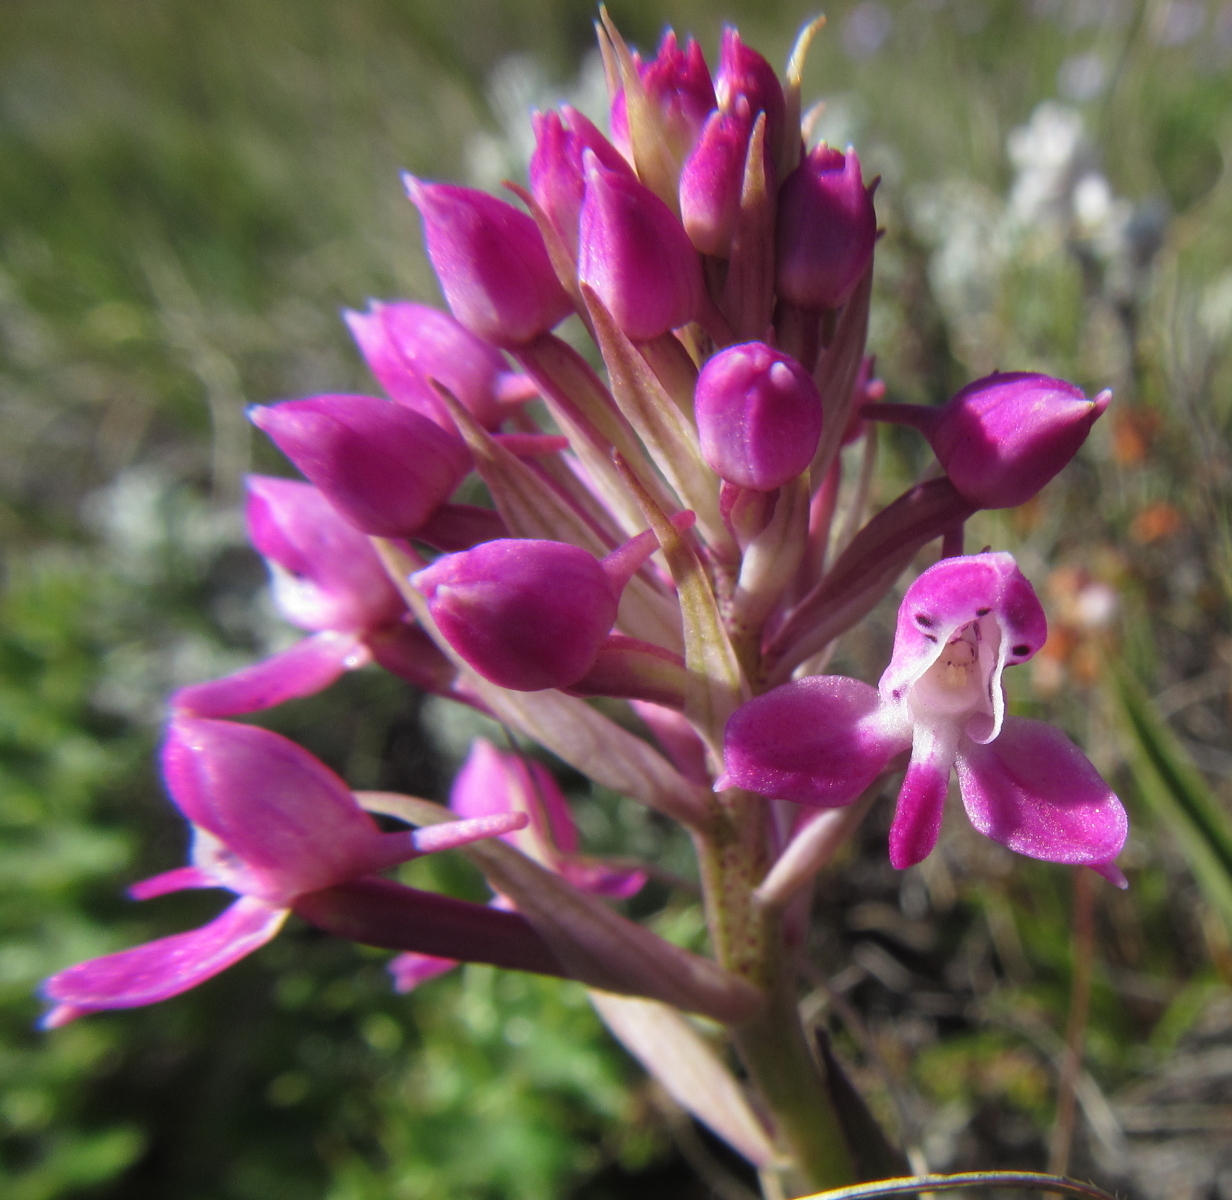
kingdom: Plantae
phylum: Tracheophyta
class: Liliopsida
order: Asparagales
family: Orchidaceae
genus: Disa
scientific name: Disa cephalotes
